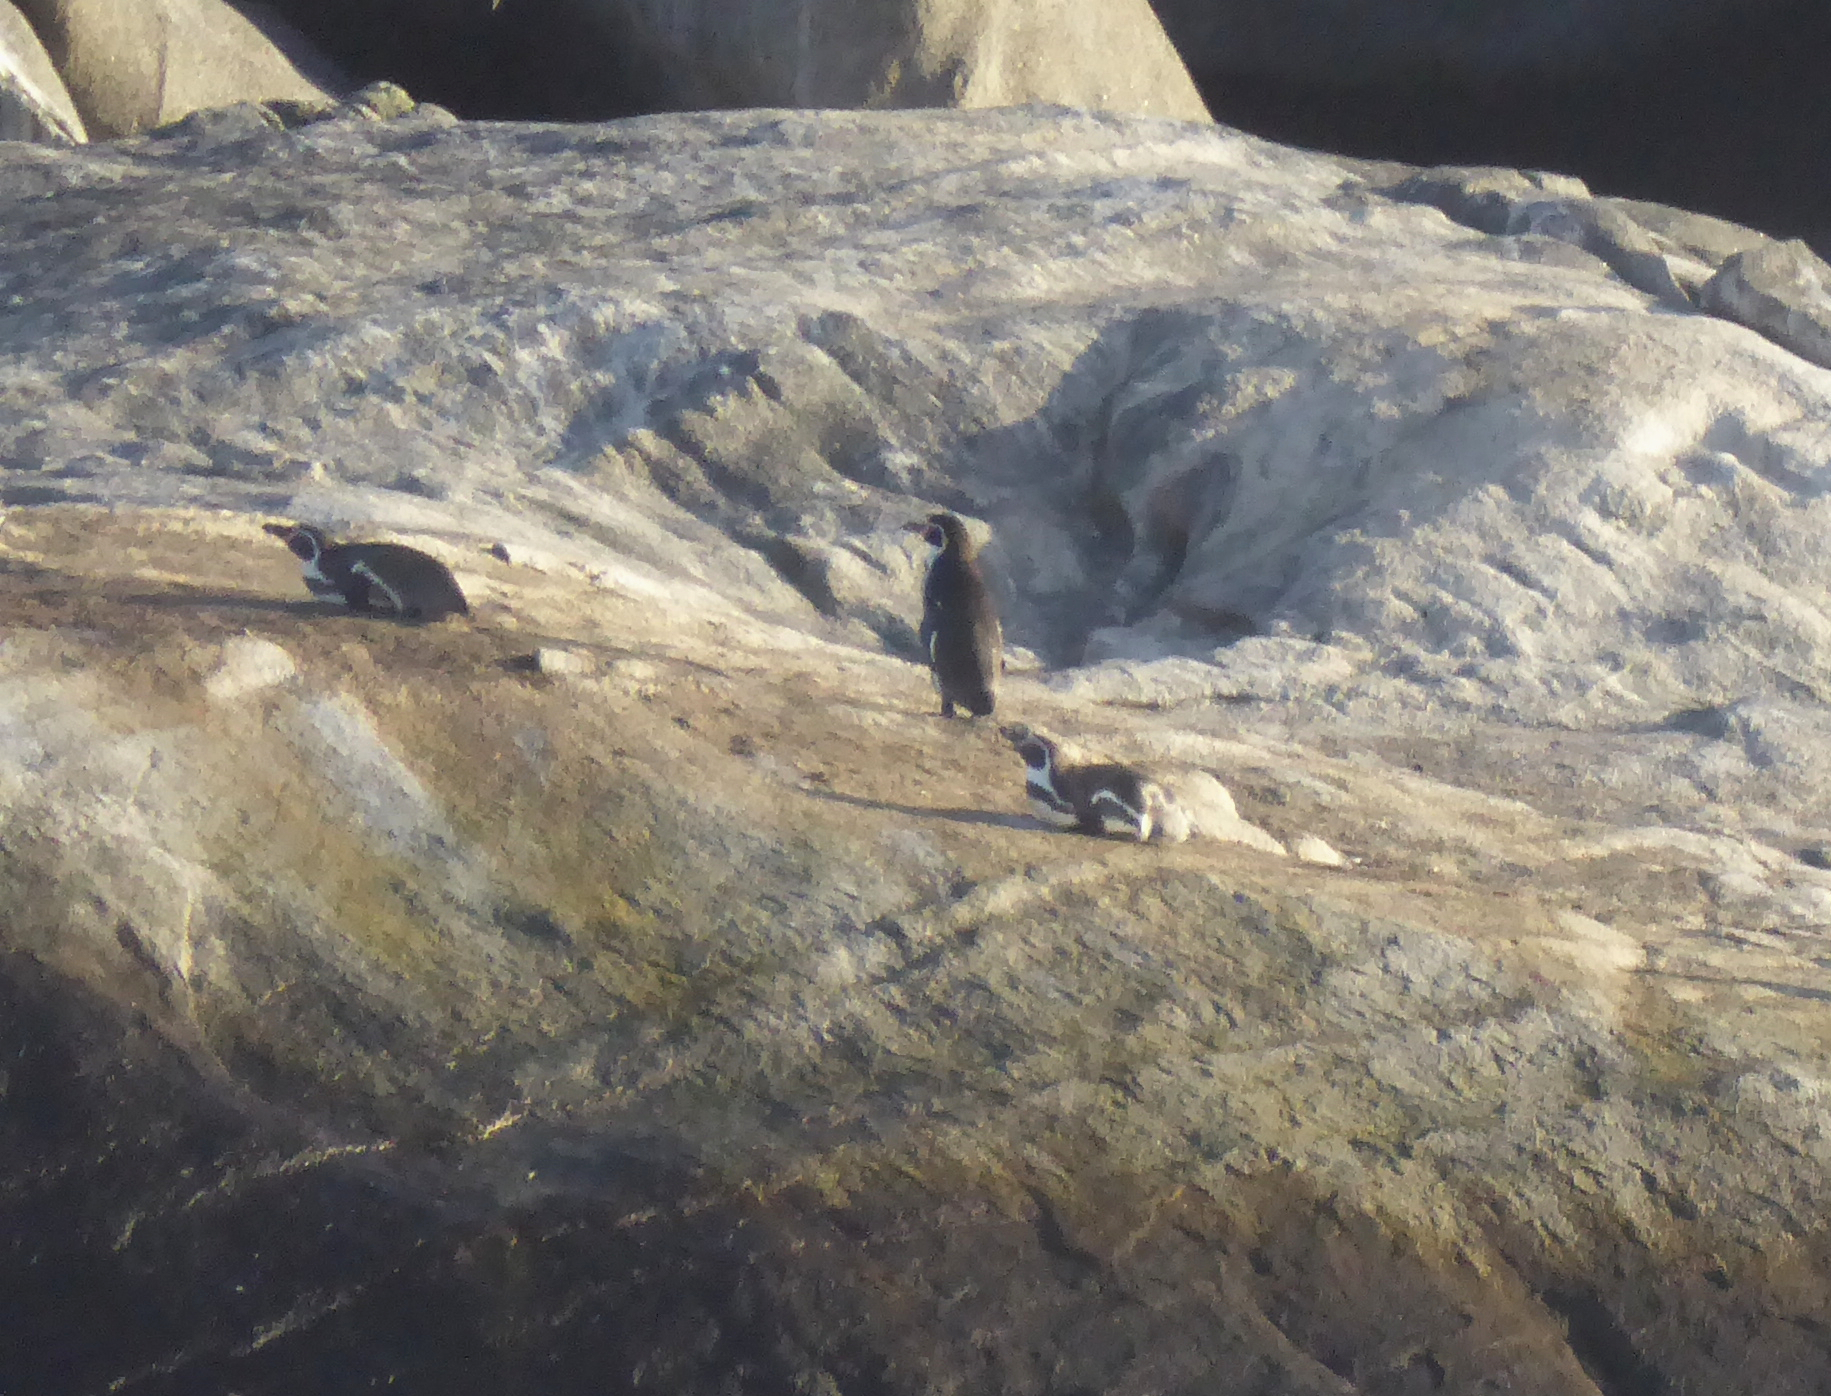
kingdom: Animalia
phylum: Chordata
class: Aves
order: Sphenisciformes
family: Spheniscidae
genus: Spheniscus
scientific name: Spheniscus humboldti
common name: Humboldt penguin
